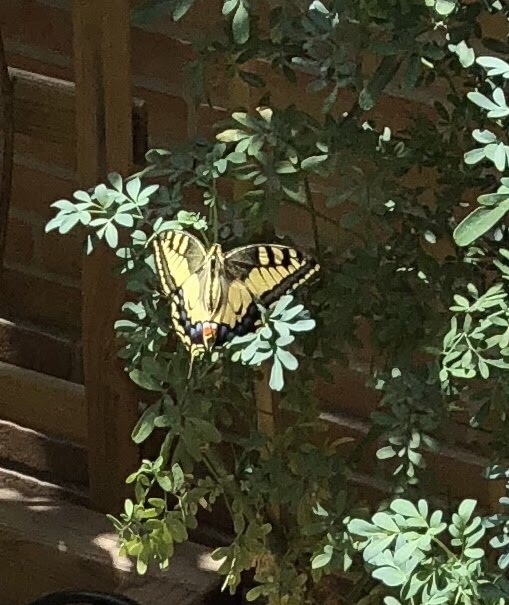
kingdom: Animalia
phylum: Arthropoda
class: Insecta
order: Lepidoptera
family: Papilionidae
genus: Papilio
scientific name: Papilio machaon
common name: Swallowtail
